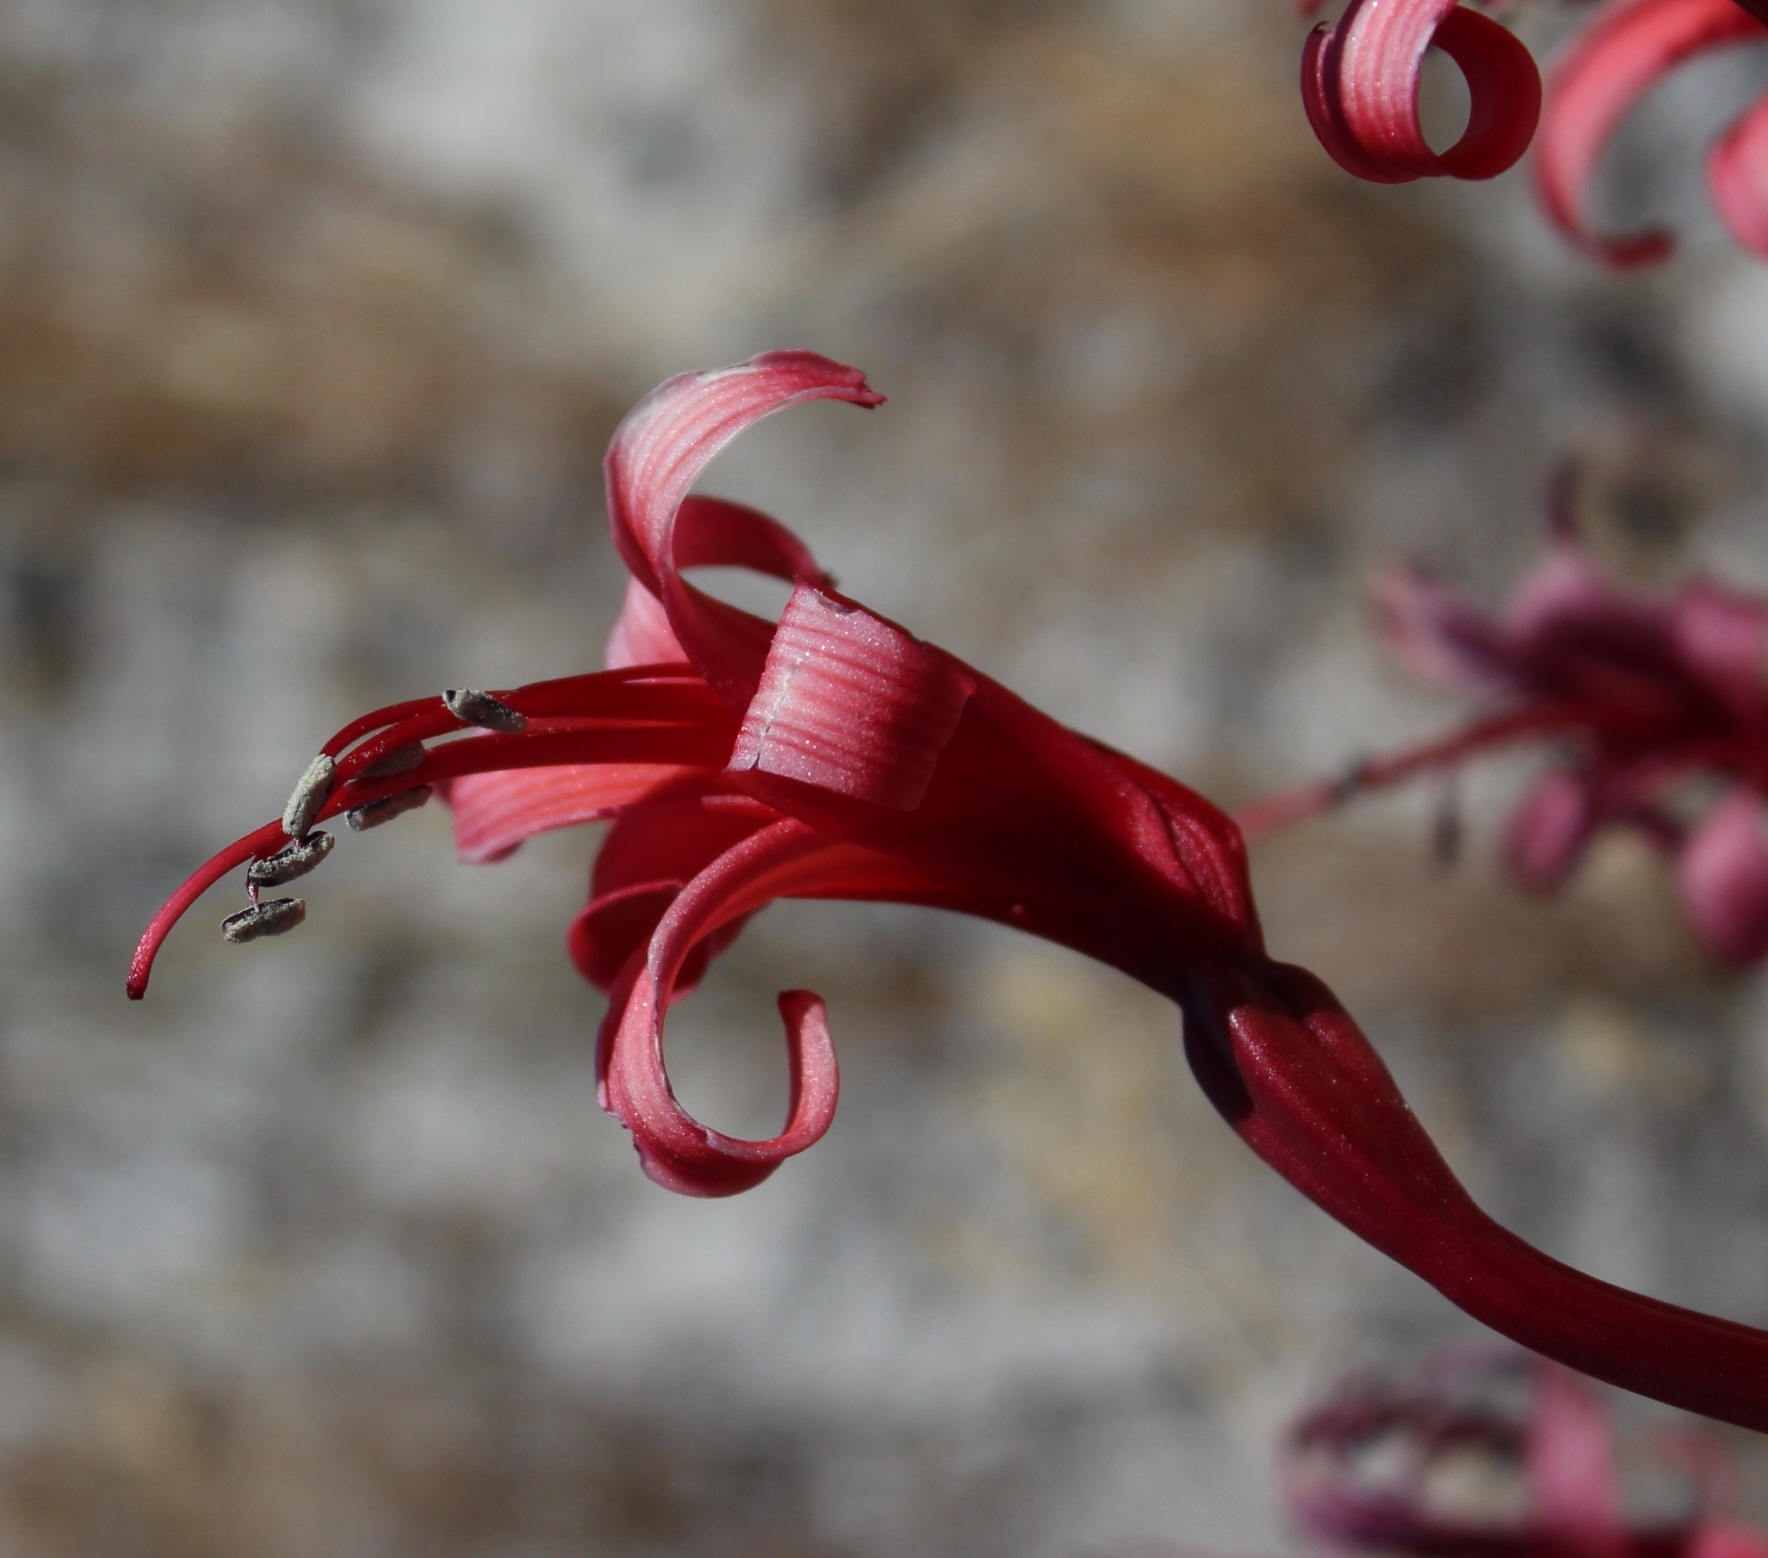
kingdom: Plantae
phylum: Tracheophyta
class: Liliopsida
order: Asparagales
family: Amaryllidaceae
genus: Brunsvigia
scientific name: Brunsvigia orientalis
